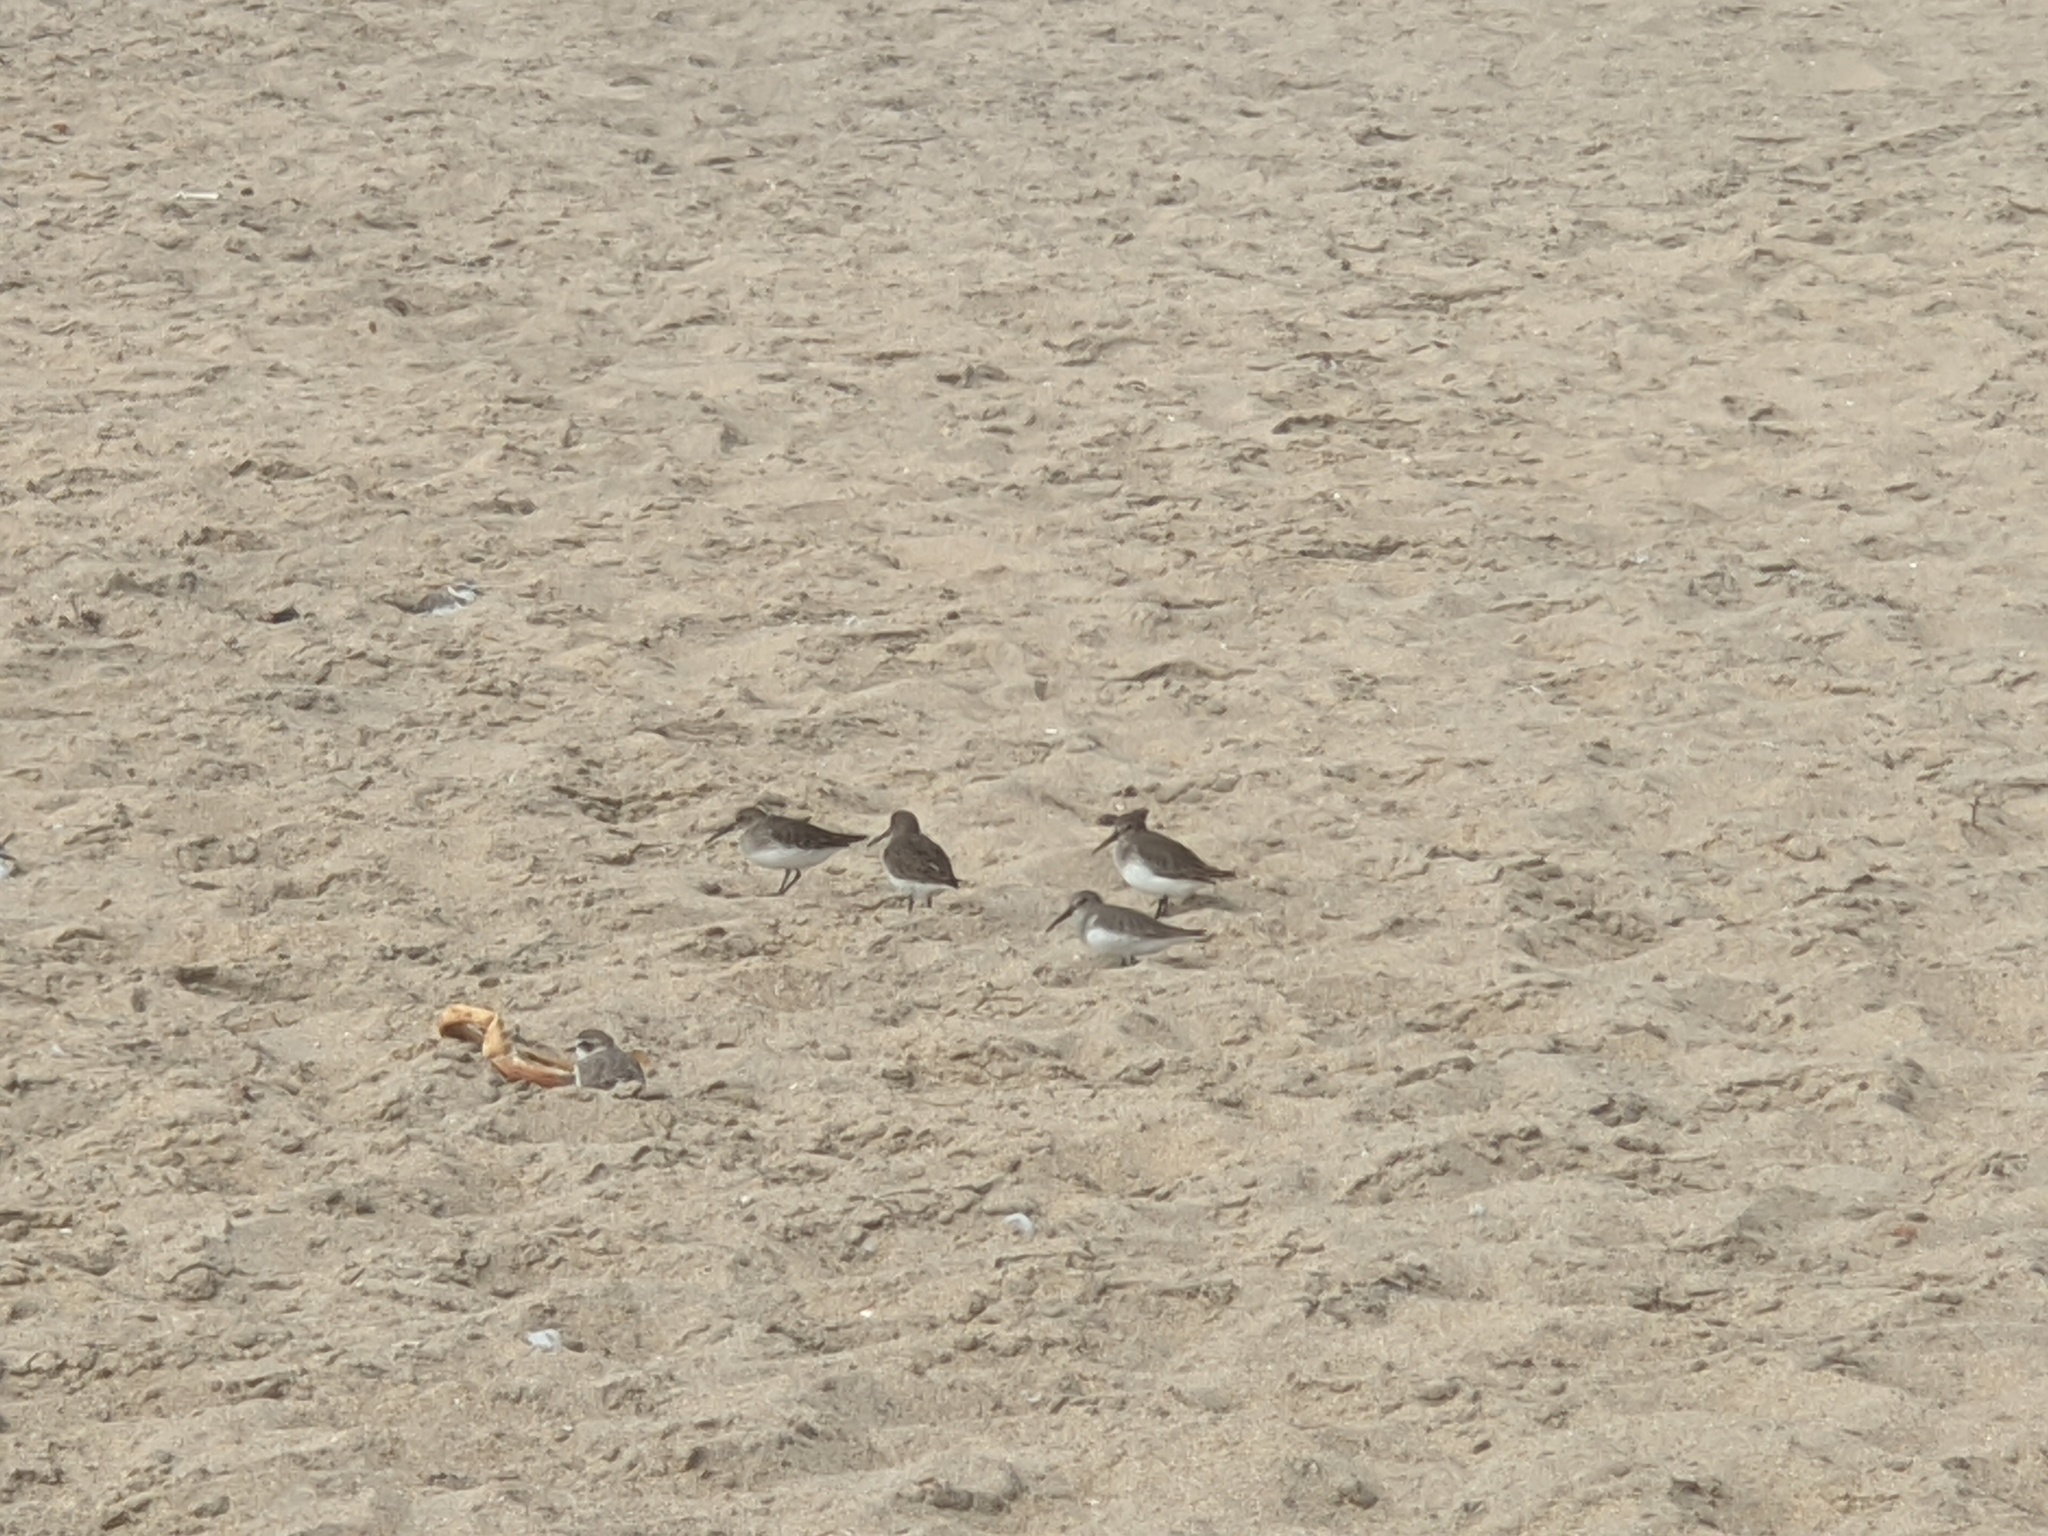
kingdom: Animalia
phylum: Chordata
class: Aves
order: Charadriiformes
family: Scolopacidae
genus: Calidris
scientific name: Calidris alpina
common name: Dunlin
